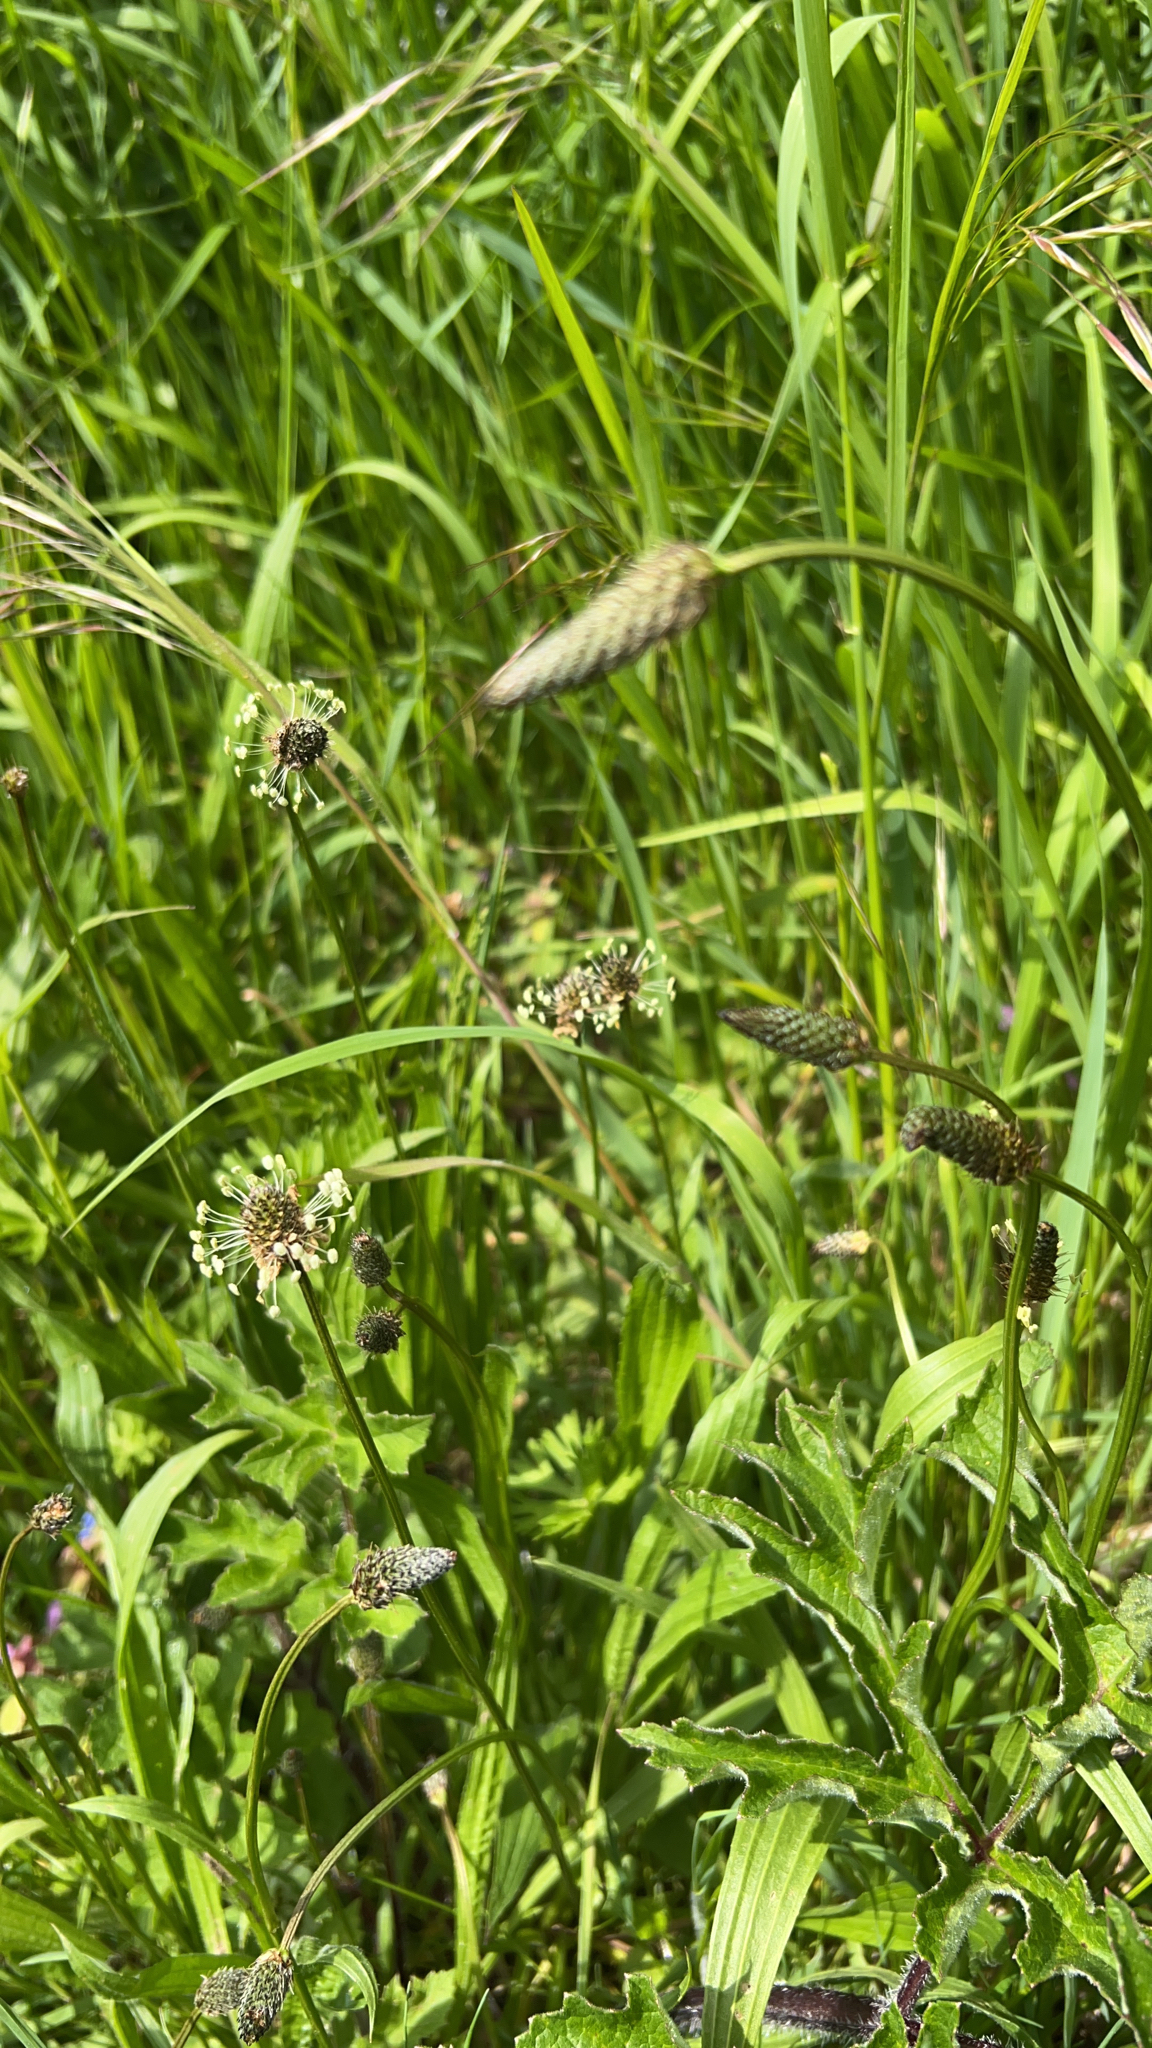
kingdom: Plantae
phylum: Tracheophyta
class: Magnoliopsida
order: Lamiales
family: Plantaginaceae
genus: Plantago
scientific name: Plantago lanceolata
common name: Ribwort plantain
